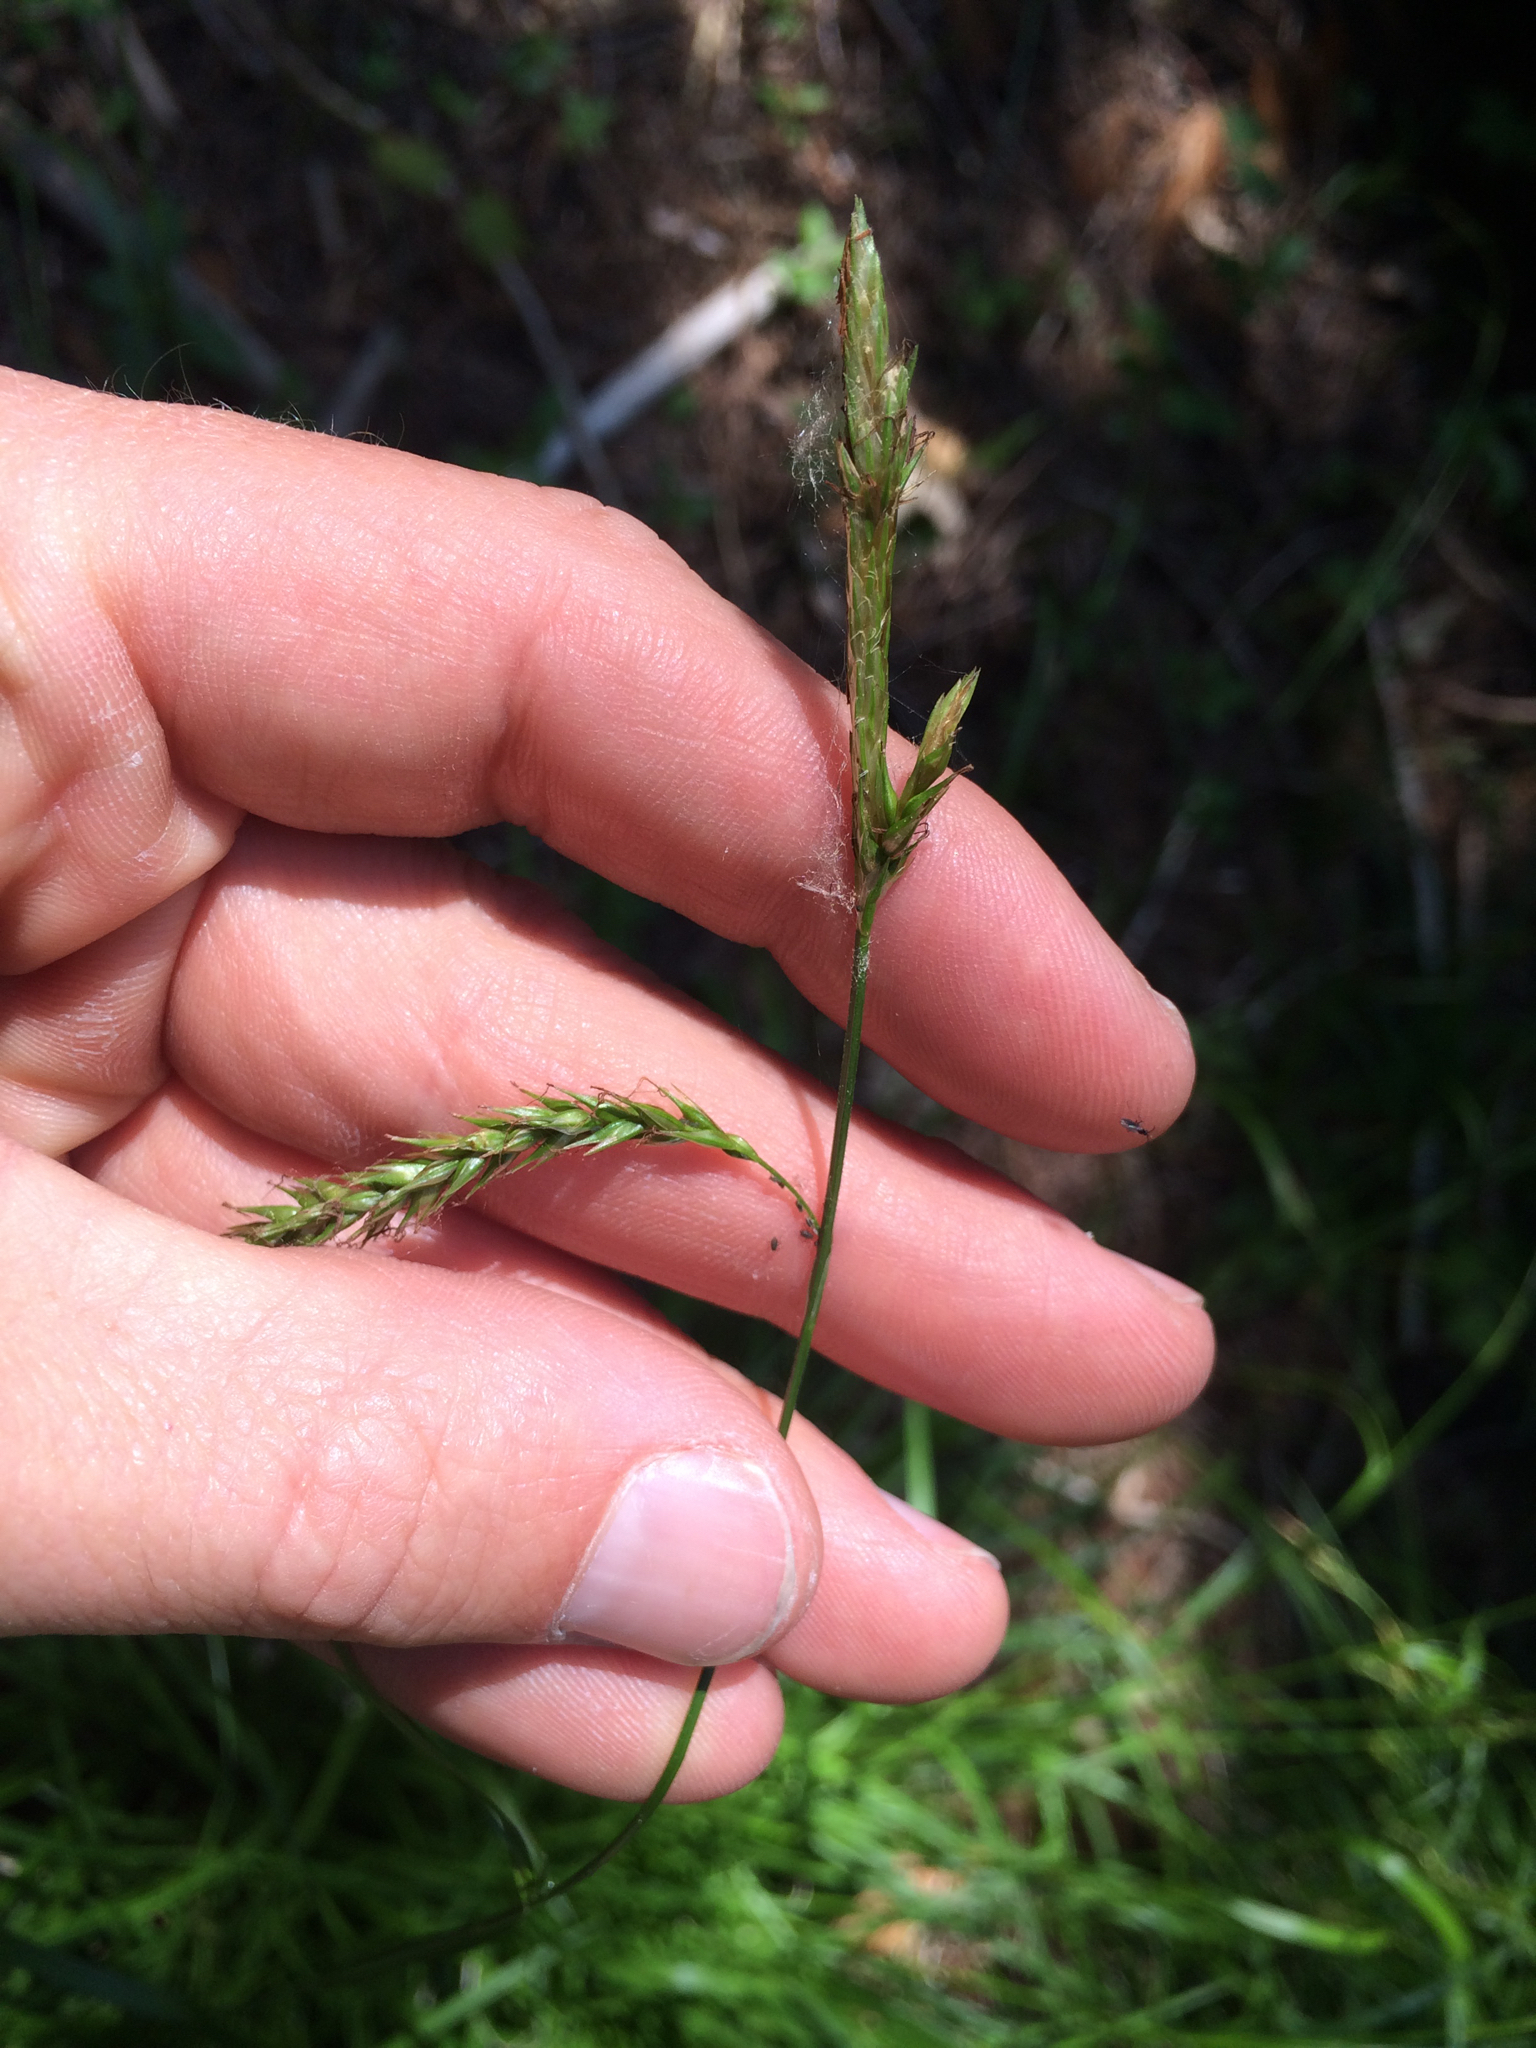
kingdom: Plantae
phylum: Tracheophyta
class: Liliopsida
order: Poales
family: Cyperaceae
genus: Carex
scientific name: Carex sylvatica
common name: Wood-sedge
